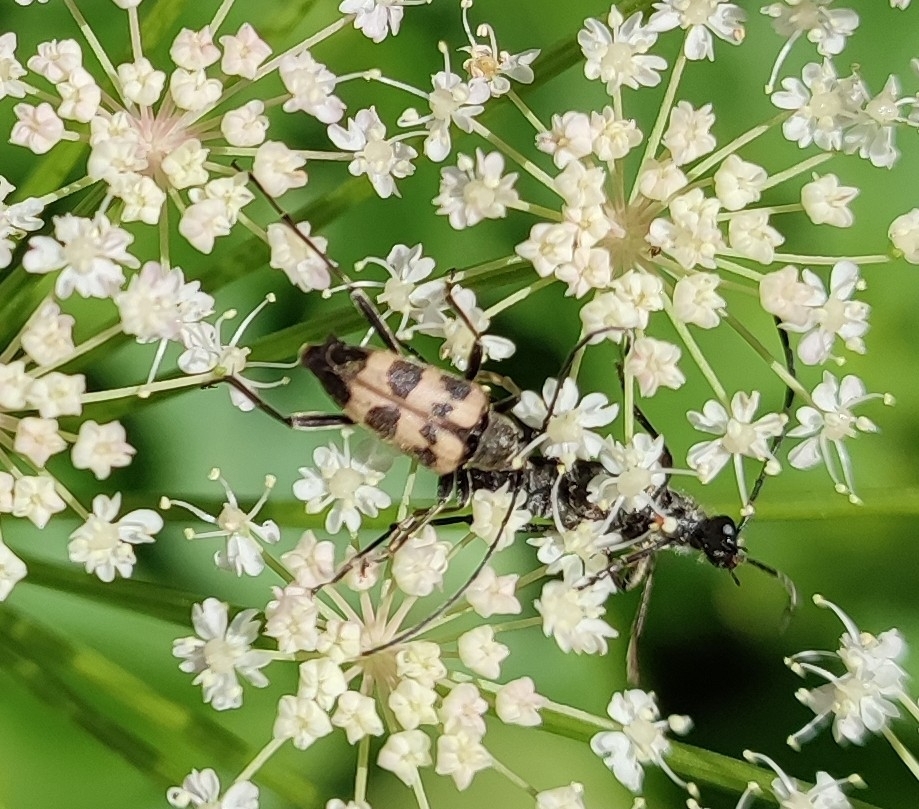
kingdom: Animalia
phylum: Arthropoda
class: Insecta
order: Coleoptera
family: Cerambycidae
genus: Pachytodes
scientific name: Pachytodes cerambyciformis
